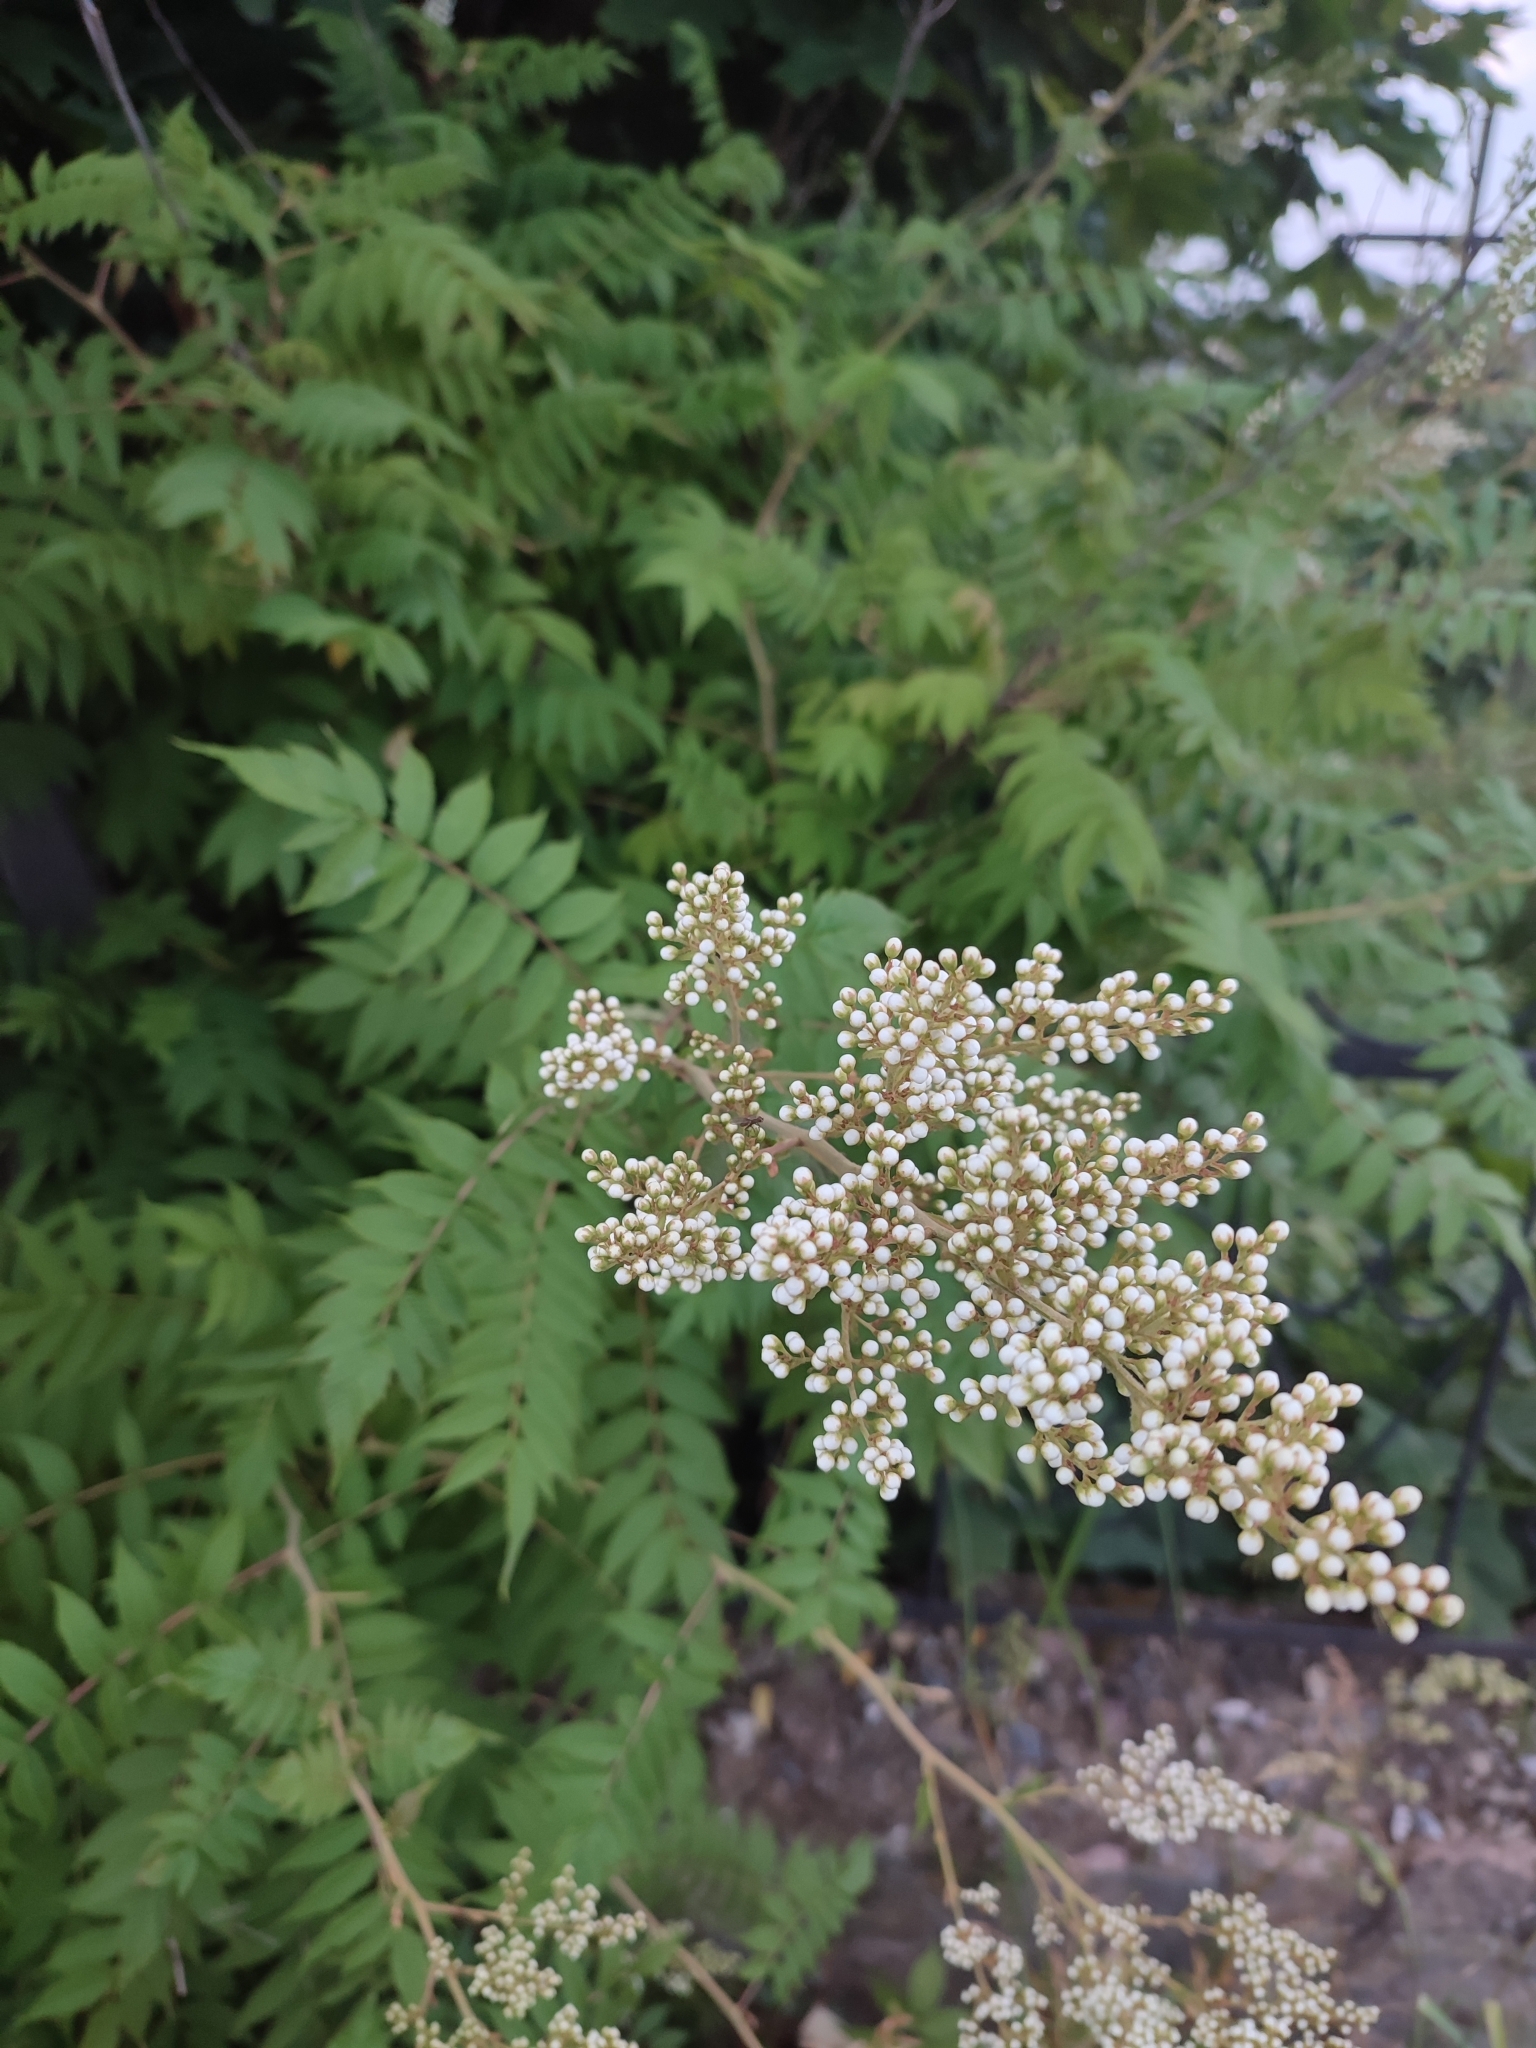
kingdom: Plantae
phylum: Tracheophyta
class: Magnoliopsida
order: Rosales
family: Rosaceae
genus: Sorbaria
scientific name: Sorbaria sorbifolia
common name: False spiraea
